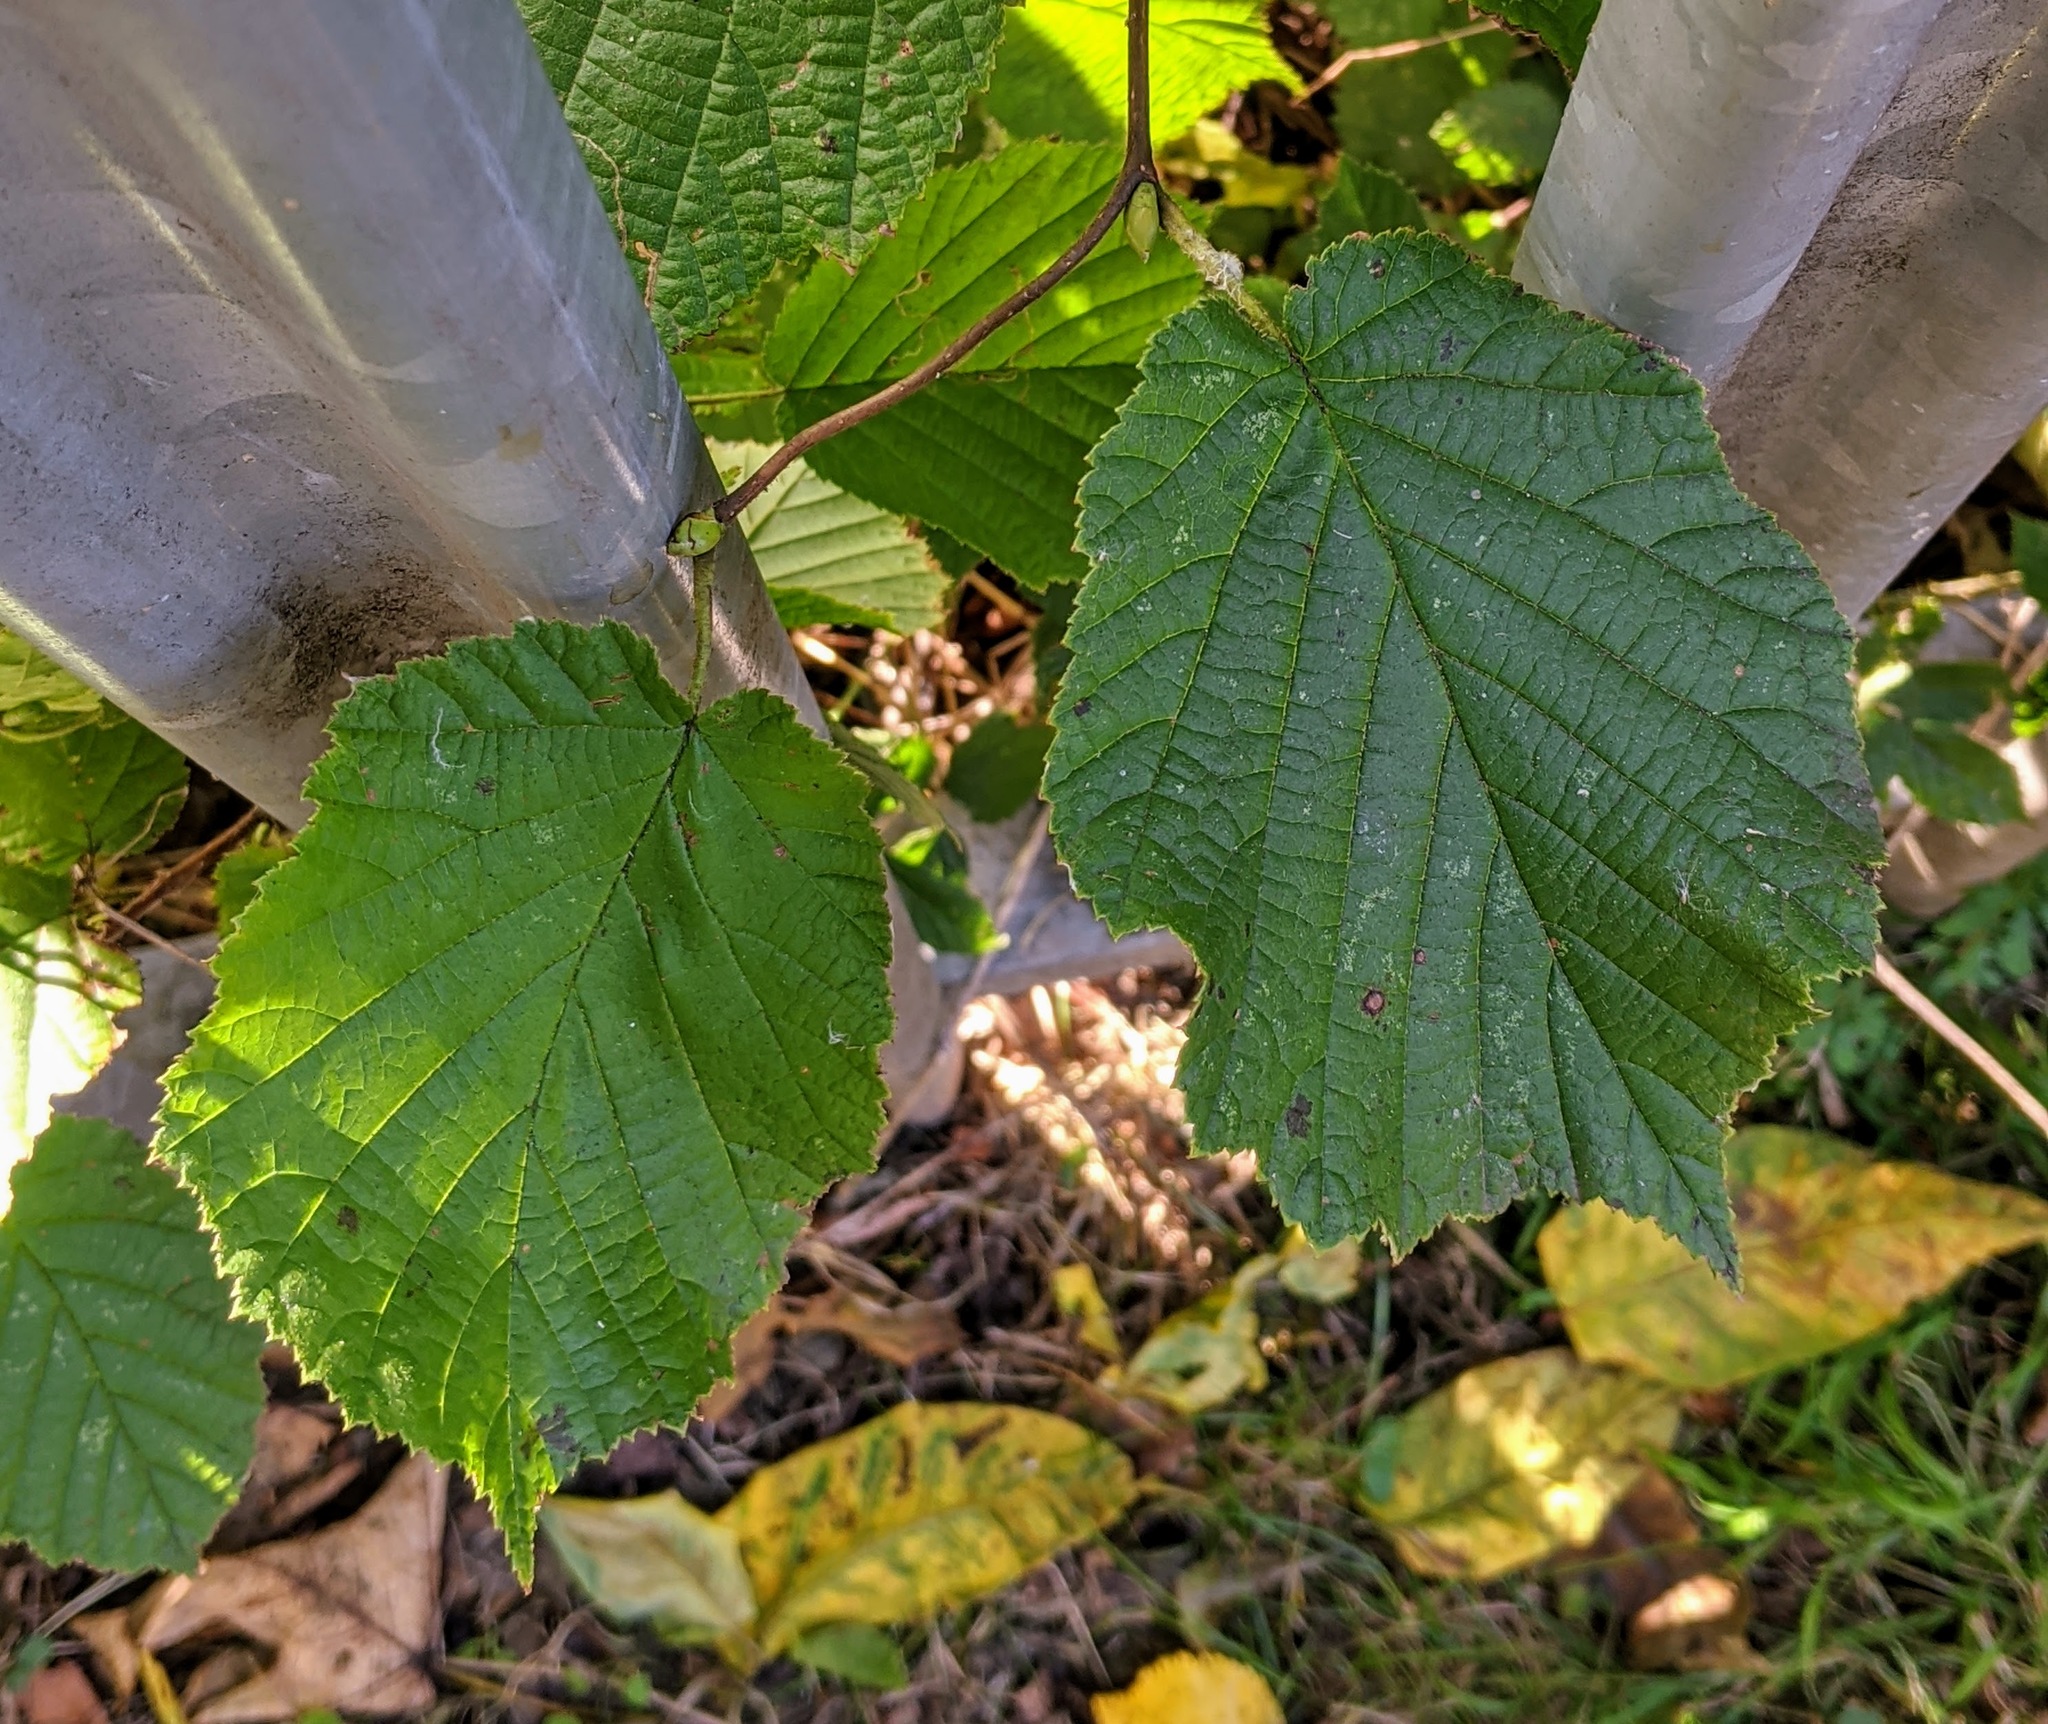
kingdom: Plantae
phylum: Tracheophyta
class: Magnoliopsida
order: Fagales
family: Betulaceae
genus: Corylus
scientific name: Corylus avellana
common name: European hazel
